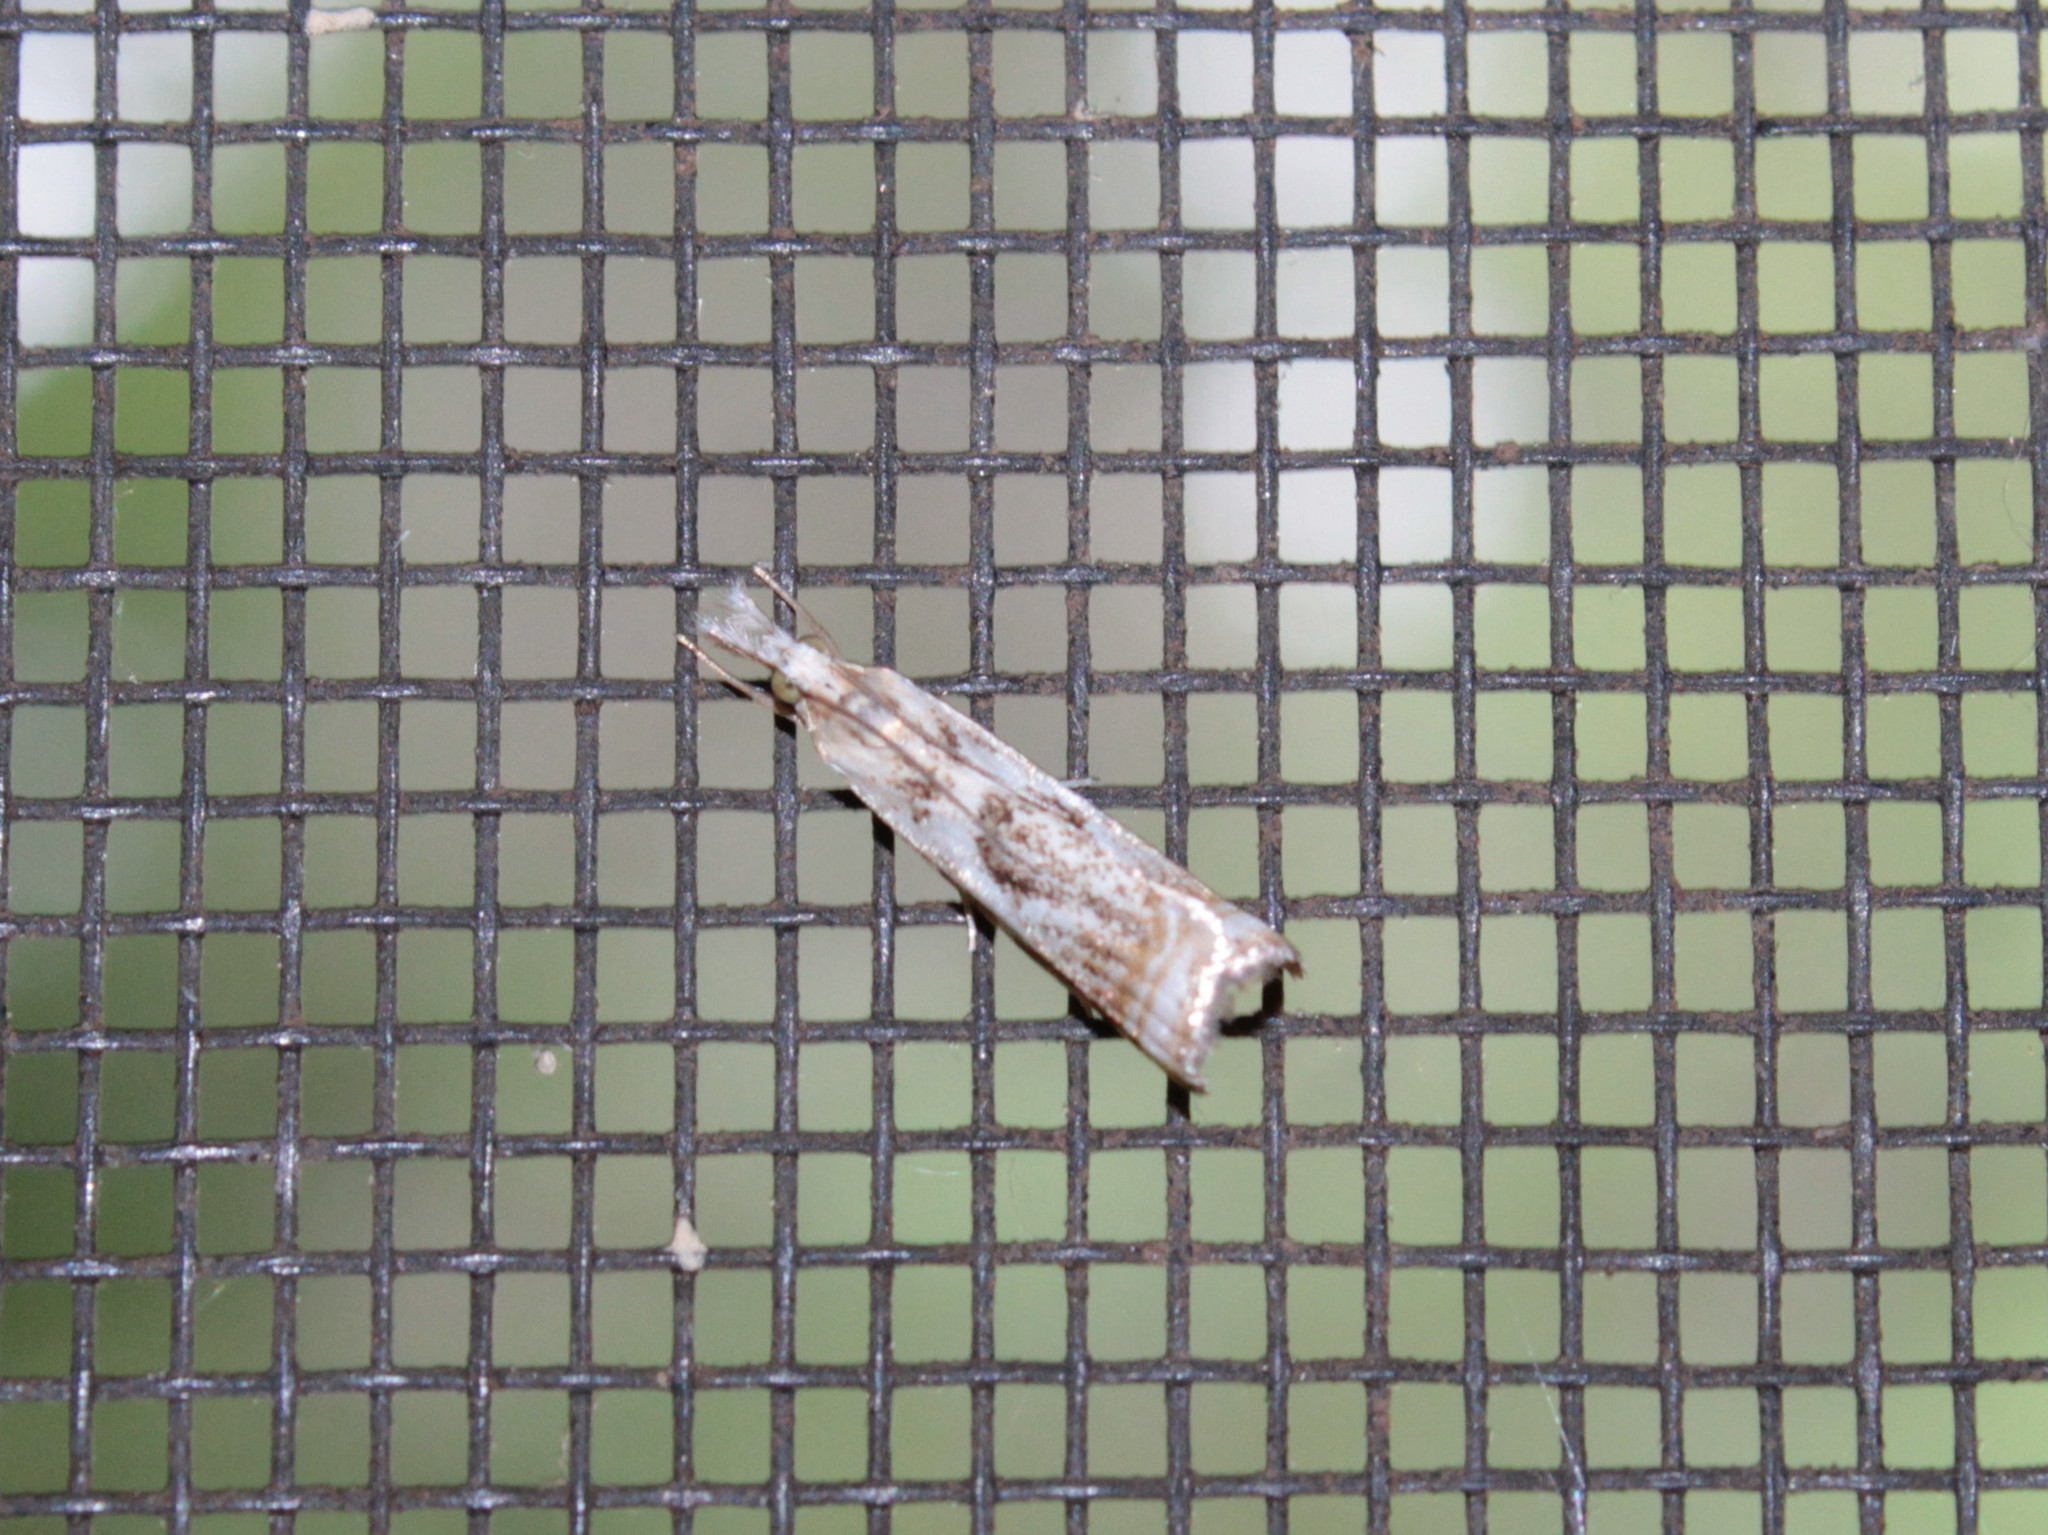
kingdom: Animalia
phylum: Arthropoda
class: Insecta
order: Lepidoptera
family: Crambidae
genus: Microcrambus
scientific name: Microcrambus elegans
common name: Elegant grass-veneer
